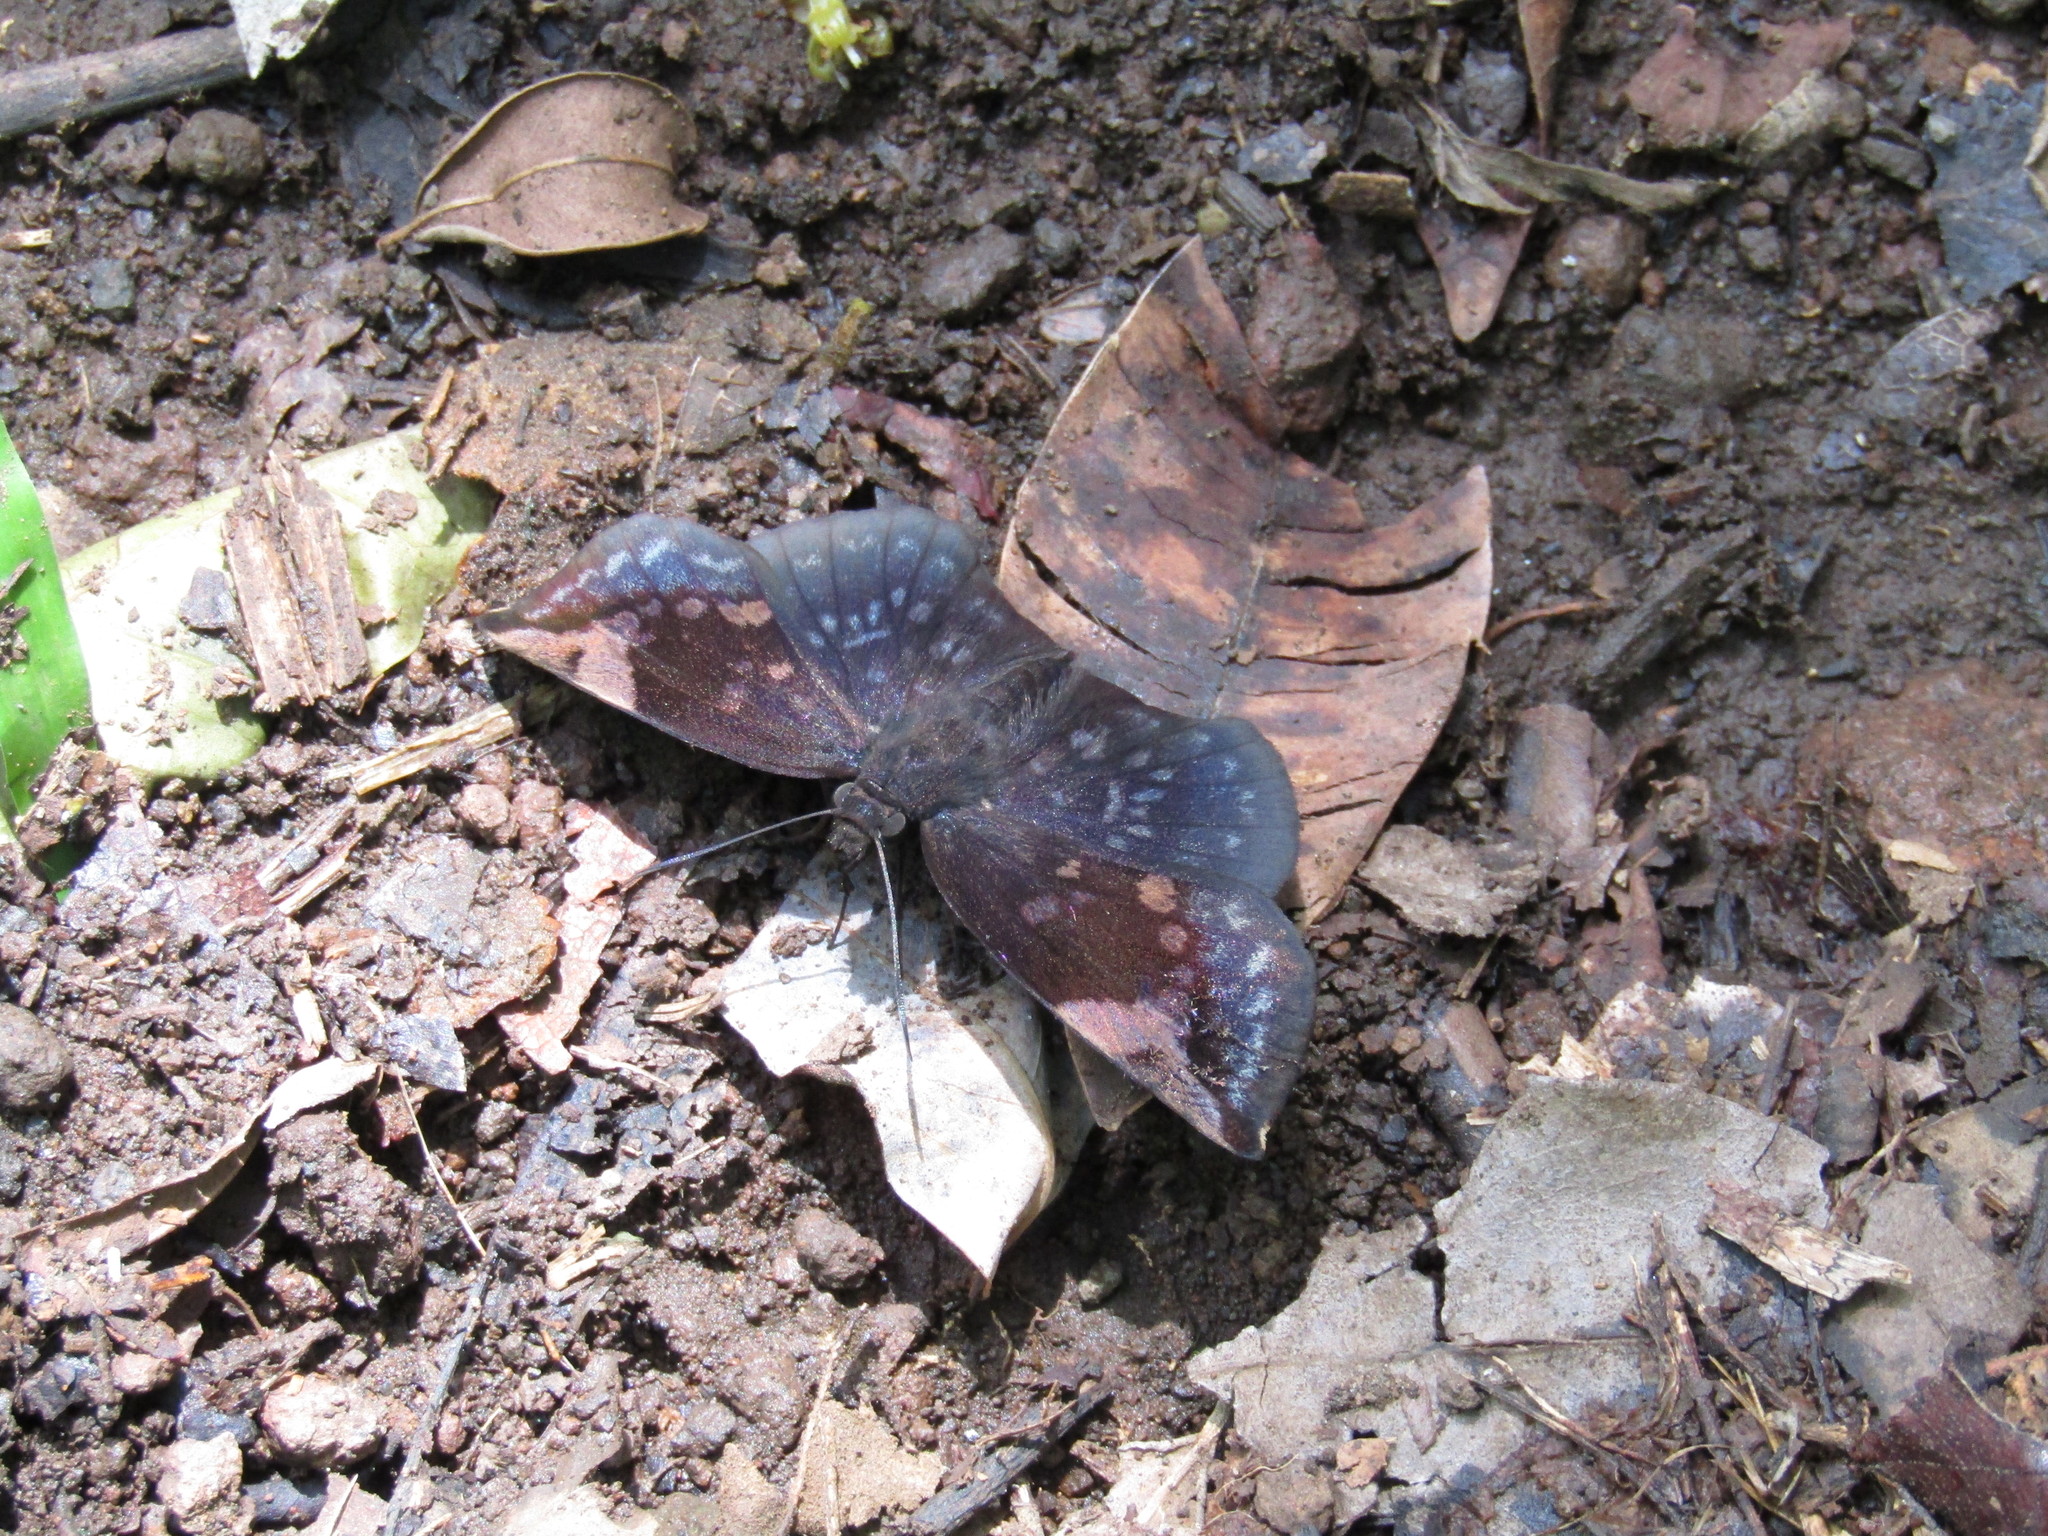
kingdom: Animalia
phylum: Arthropoda
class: Insecta
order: Lepidoptera
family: Hesperiidae
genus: Achlyodes
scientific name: Achlyodes thraso
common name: Sickle-winged skipper
